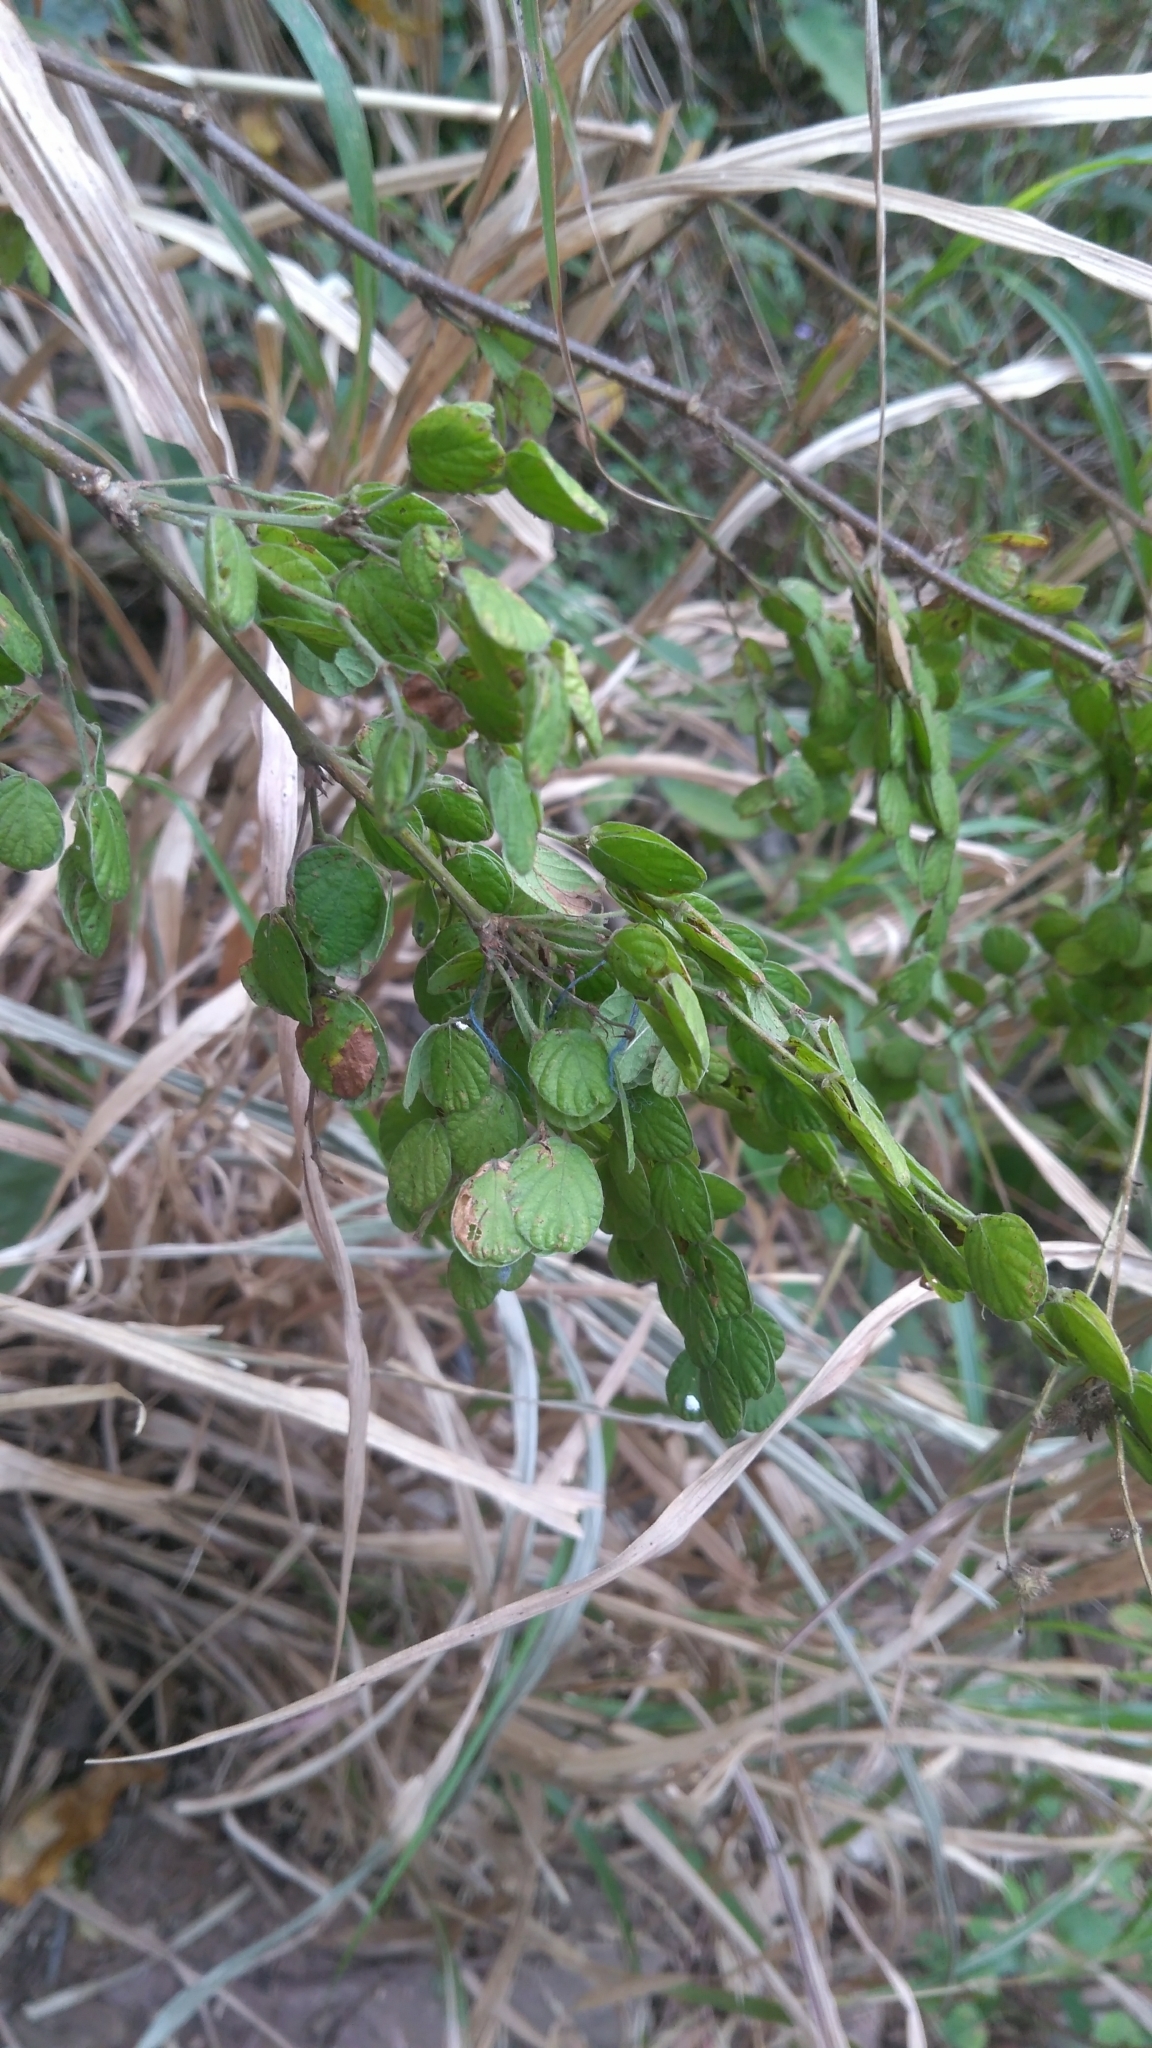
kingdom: Plantae
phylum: Tracheophyta
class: Magnoliopsida
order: Fabales
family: Fabaceae
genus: Phyllodium
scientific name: Phyllodium pulchellum
